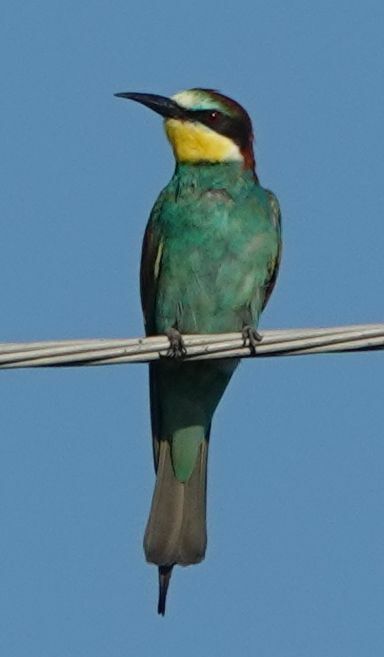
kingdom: Animalia
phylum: Chordata
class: Aves
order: Coraciiformes
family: Meropidae
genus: Merops
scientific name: Merops apiaster
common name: European bee-eater
